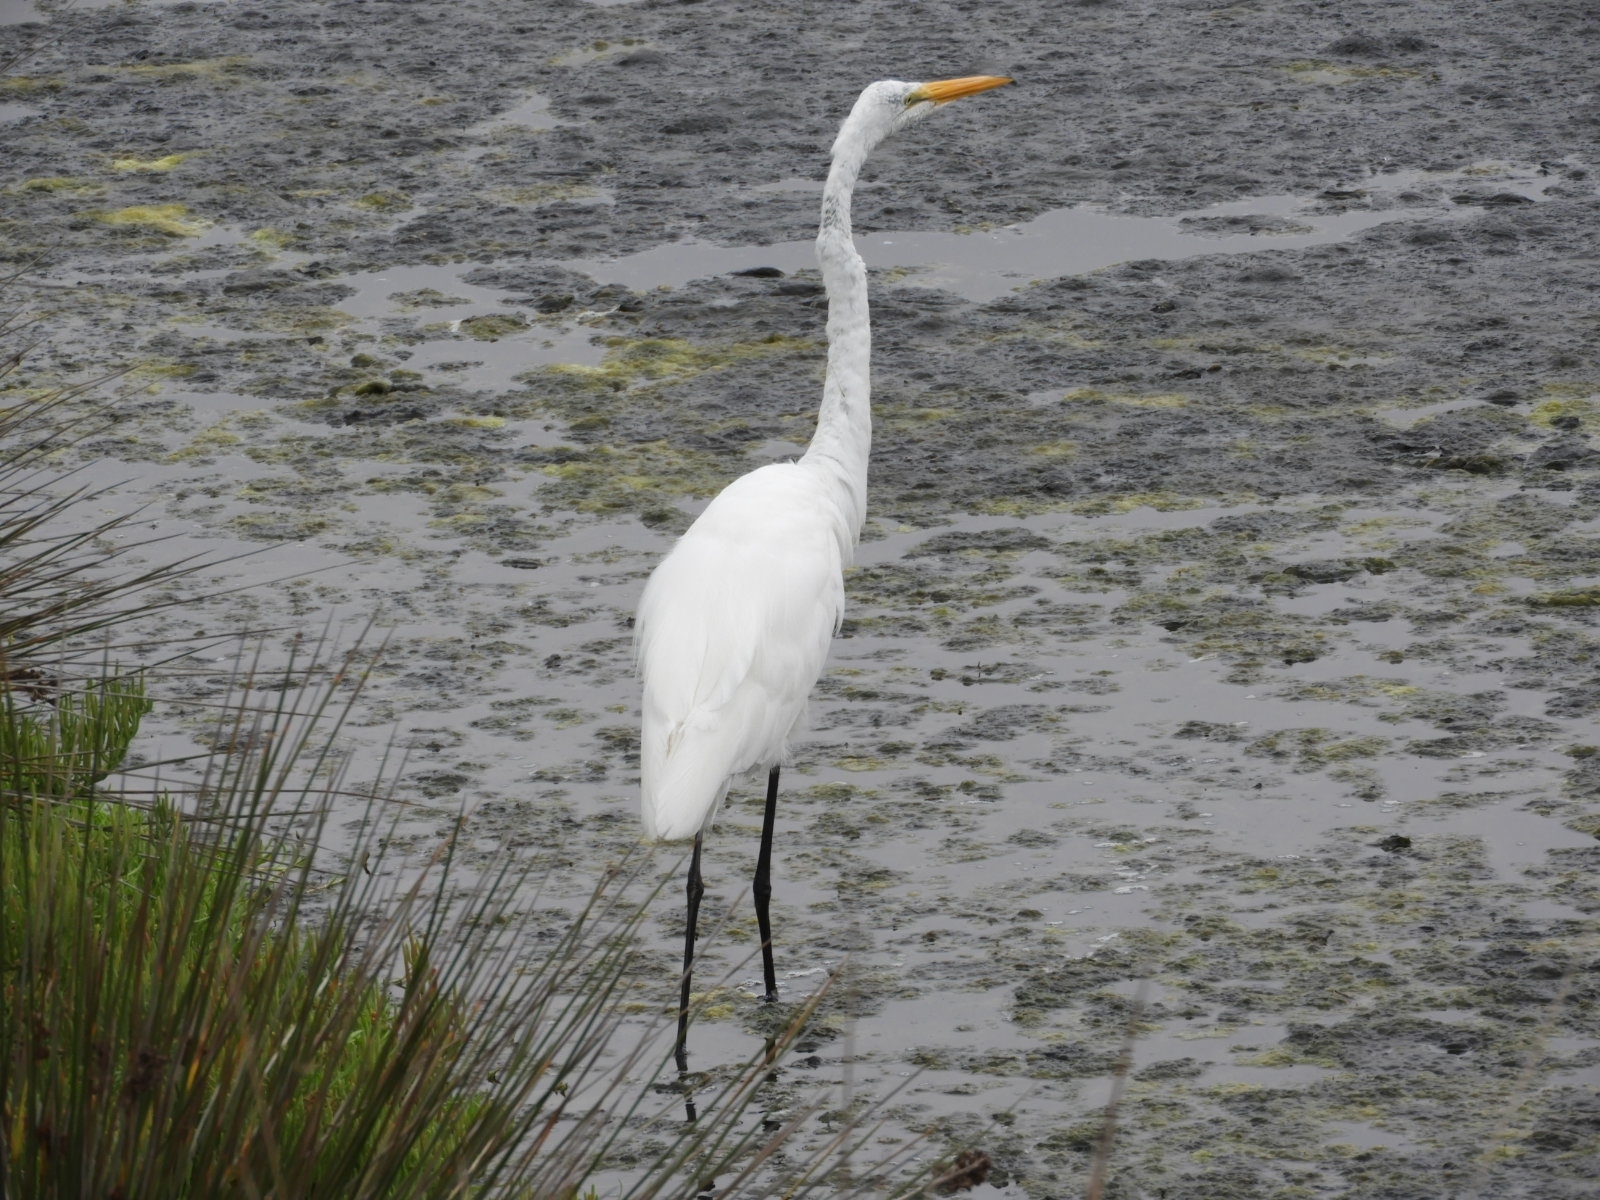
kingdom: Animalia
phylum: Chordata
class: Aves
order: Pelecaniformes
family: Ardeidae
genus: Ardea
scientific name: Ardea alba
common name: Great egret
